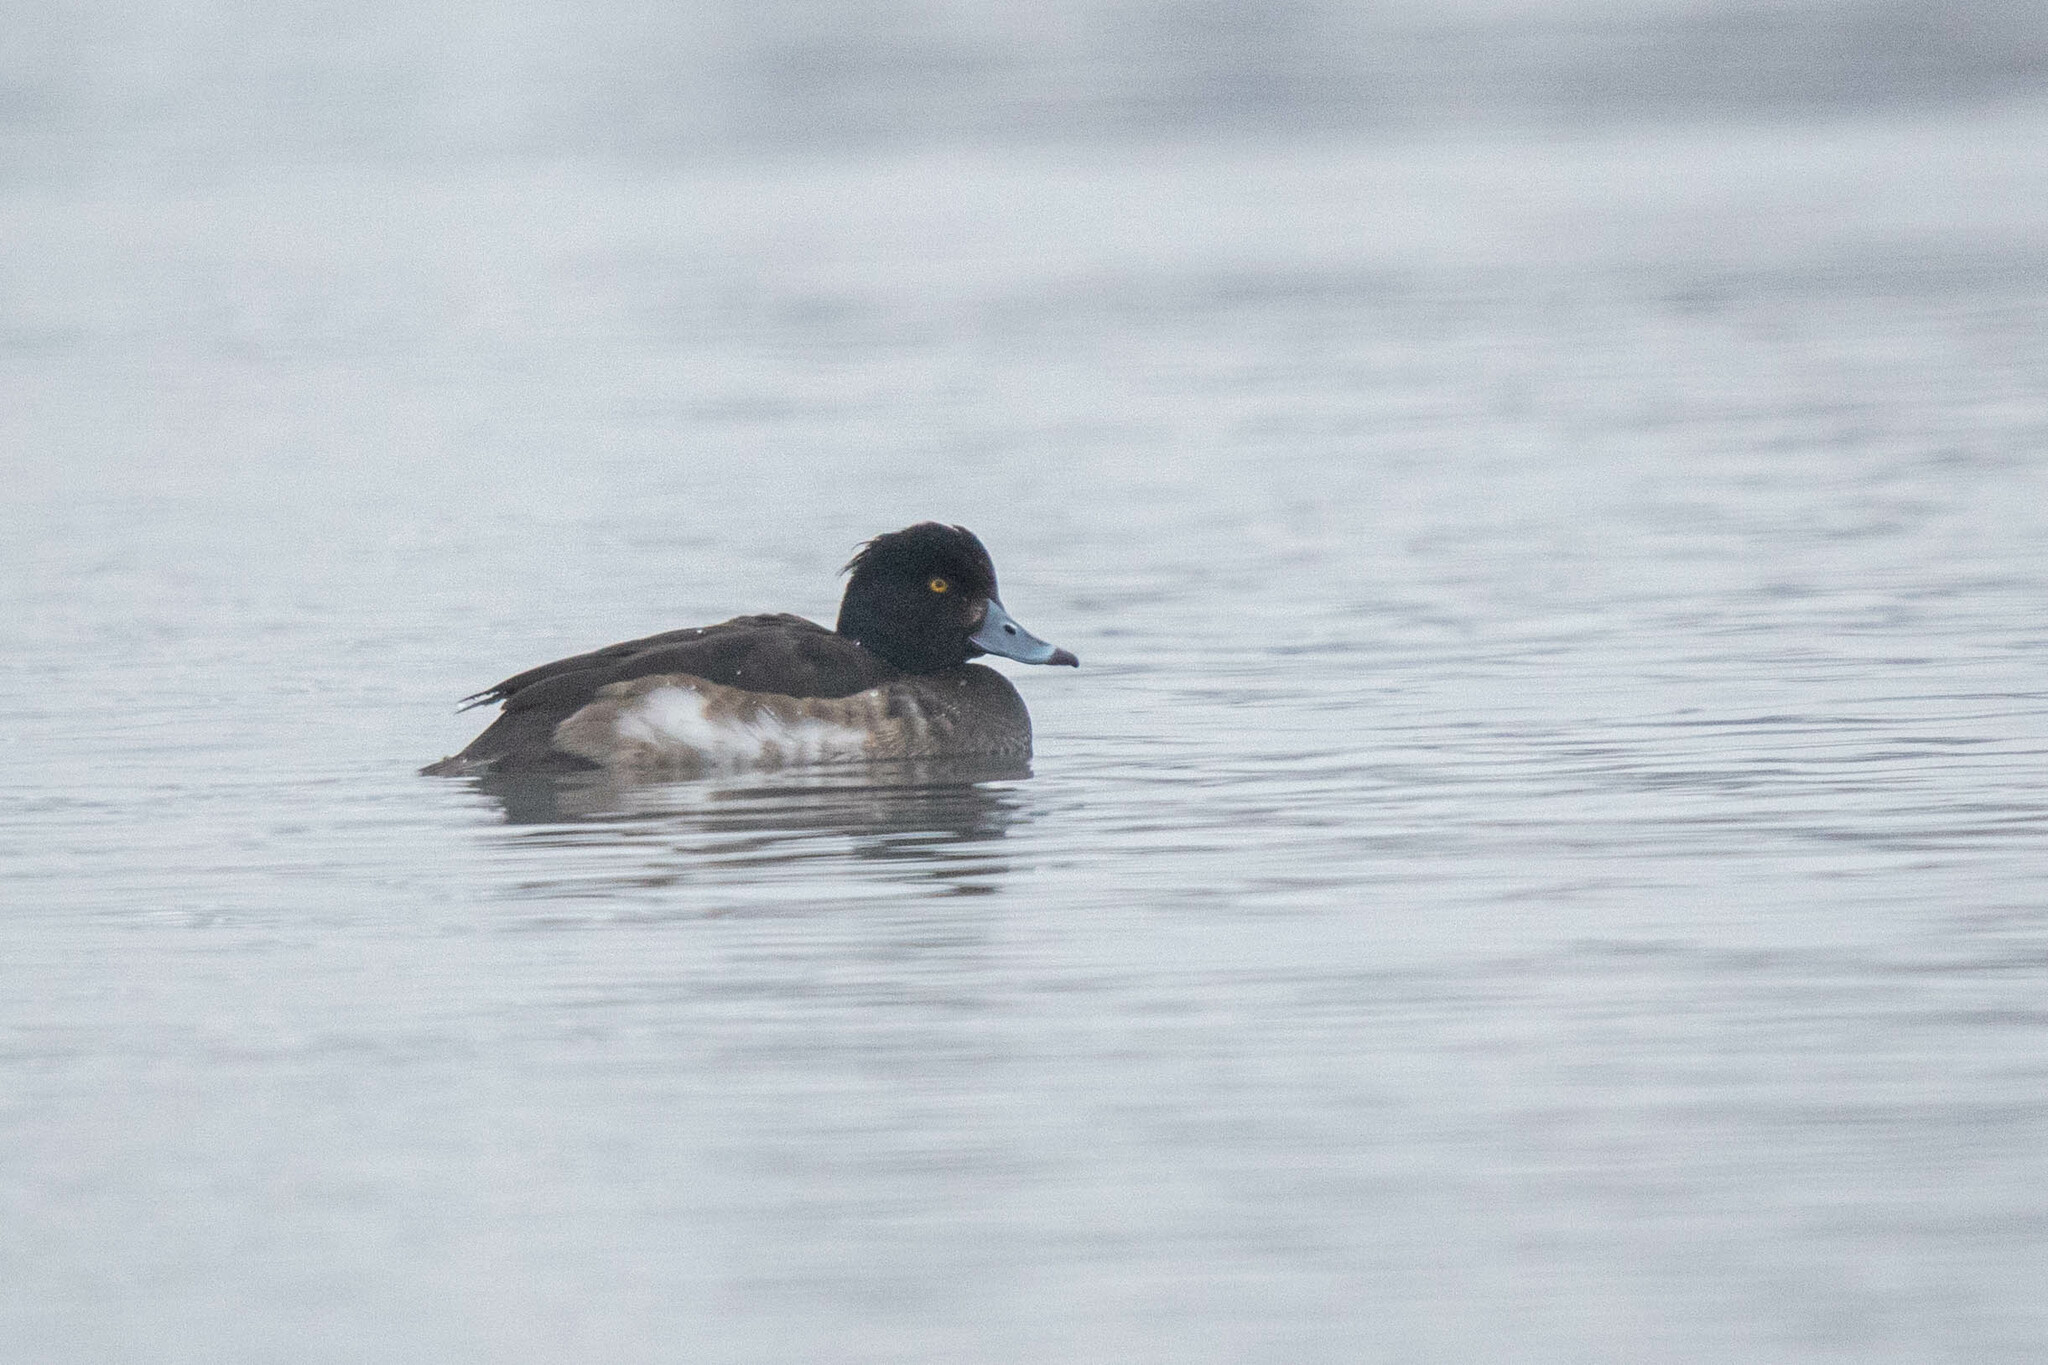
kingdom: Animalia
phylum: Chordata
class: Aves
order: Anseriformes
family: Anatidae
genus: Aythya
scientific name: Aythya fuligula
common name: Tufted duck
